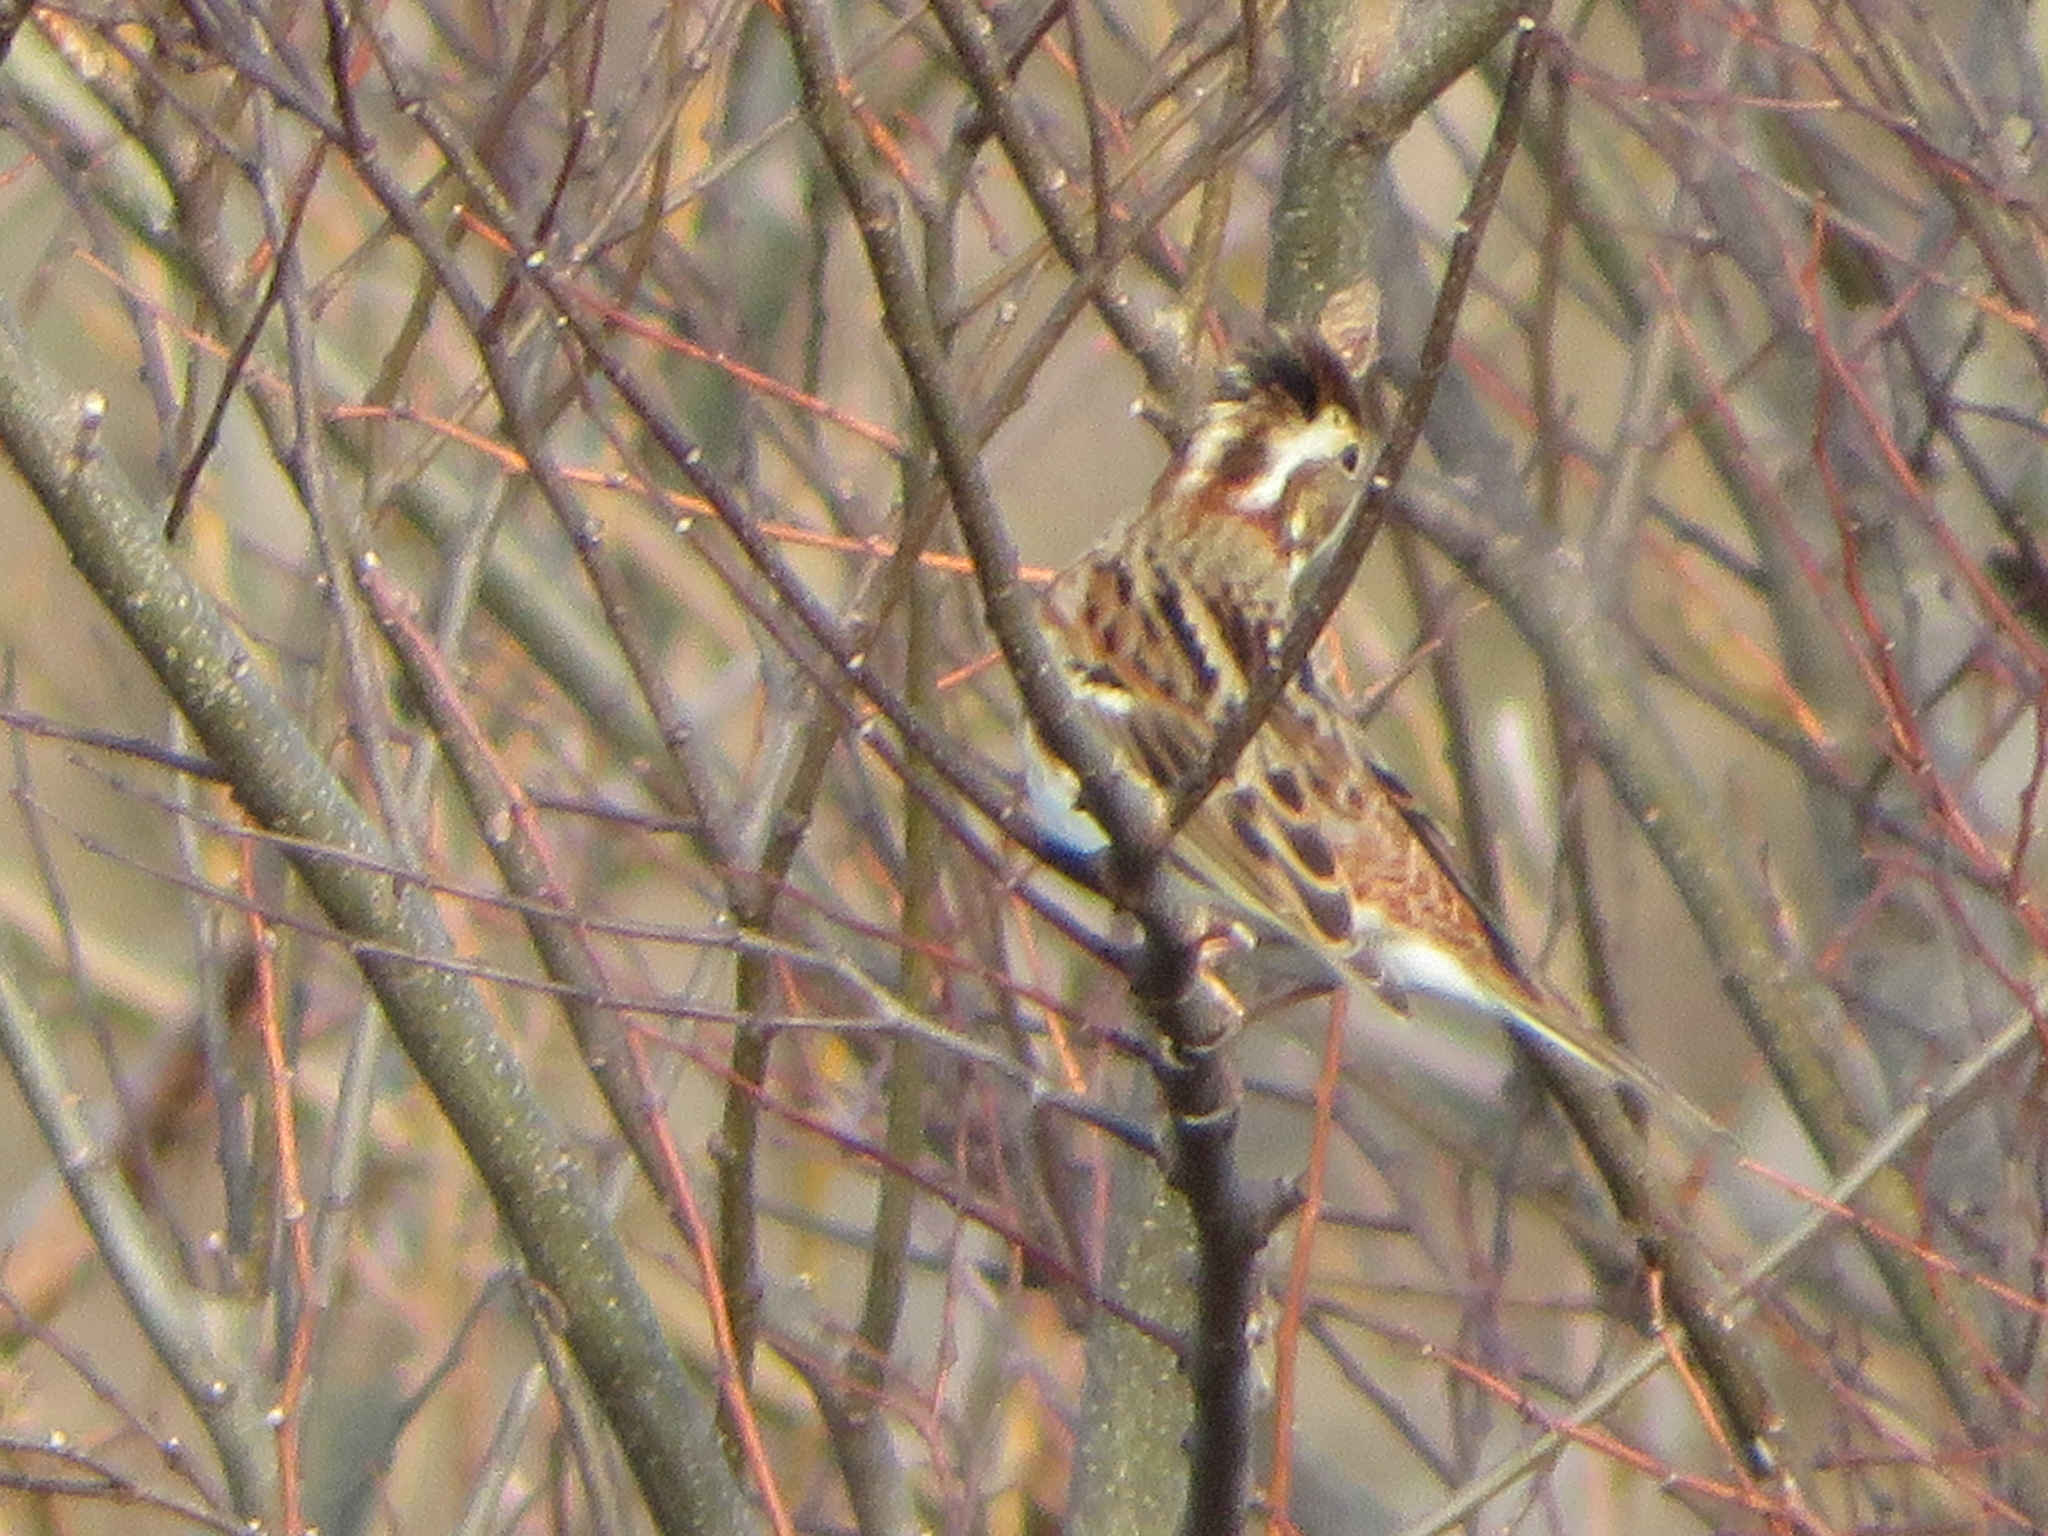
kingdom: Animalia
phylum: Chordata
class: Aves
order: Passeriformes
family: Emberizidae
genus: Emberiza
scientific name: Emberiza rustica
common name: Rustic bunting
